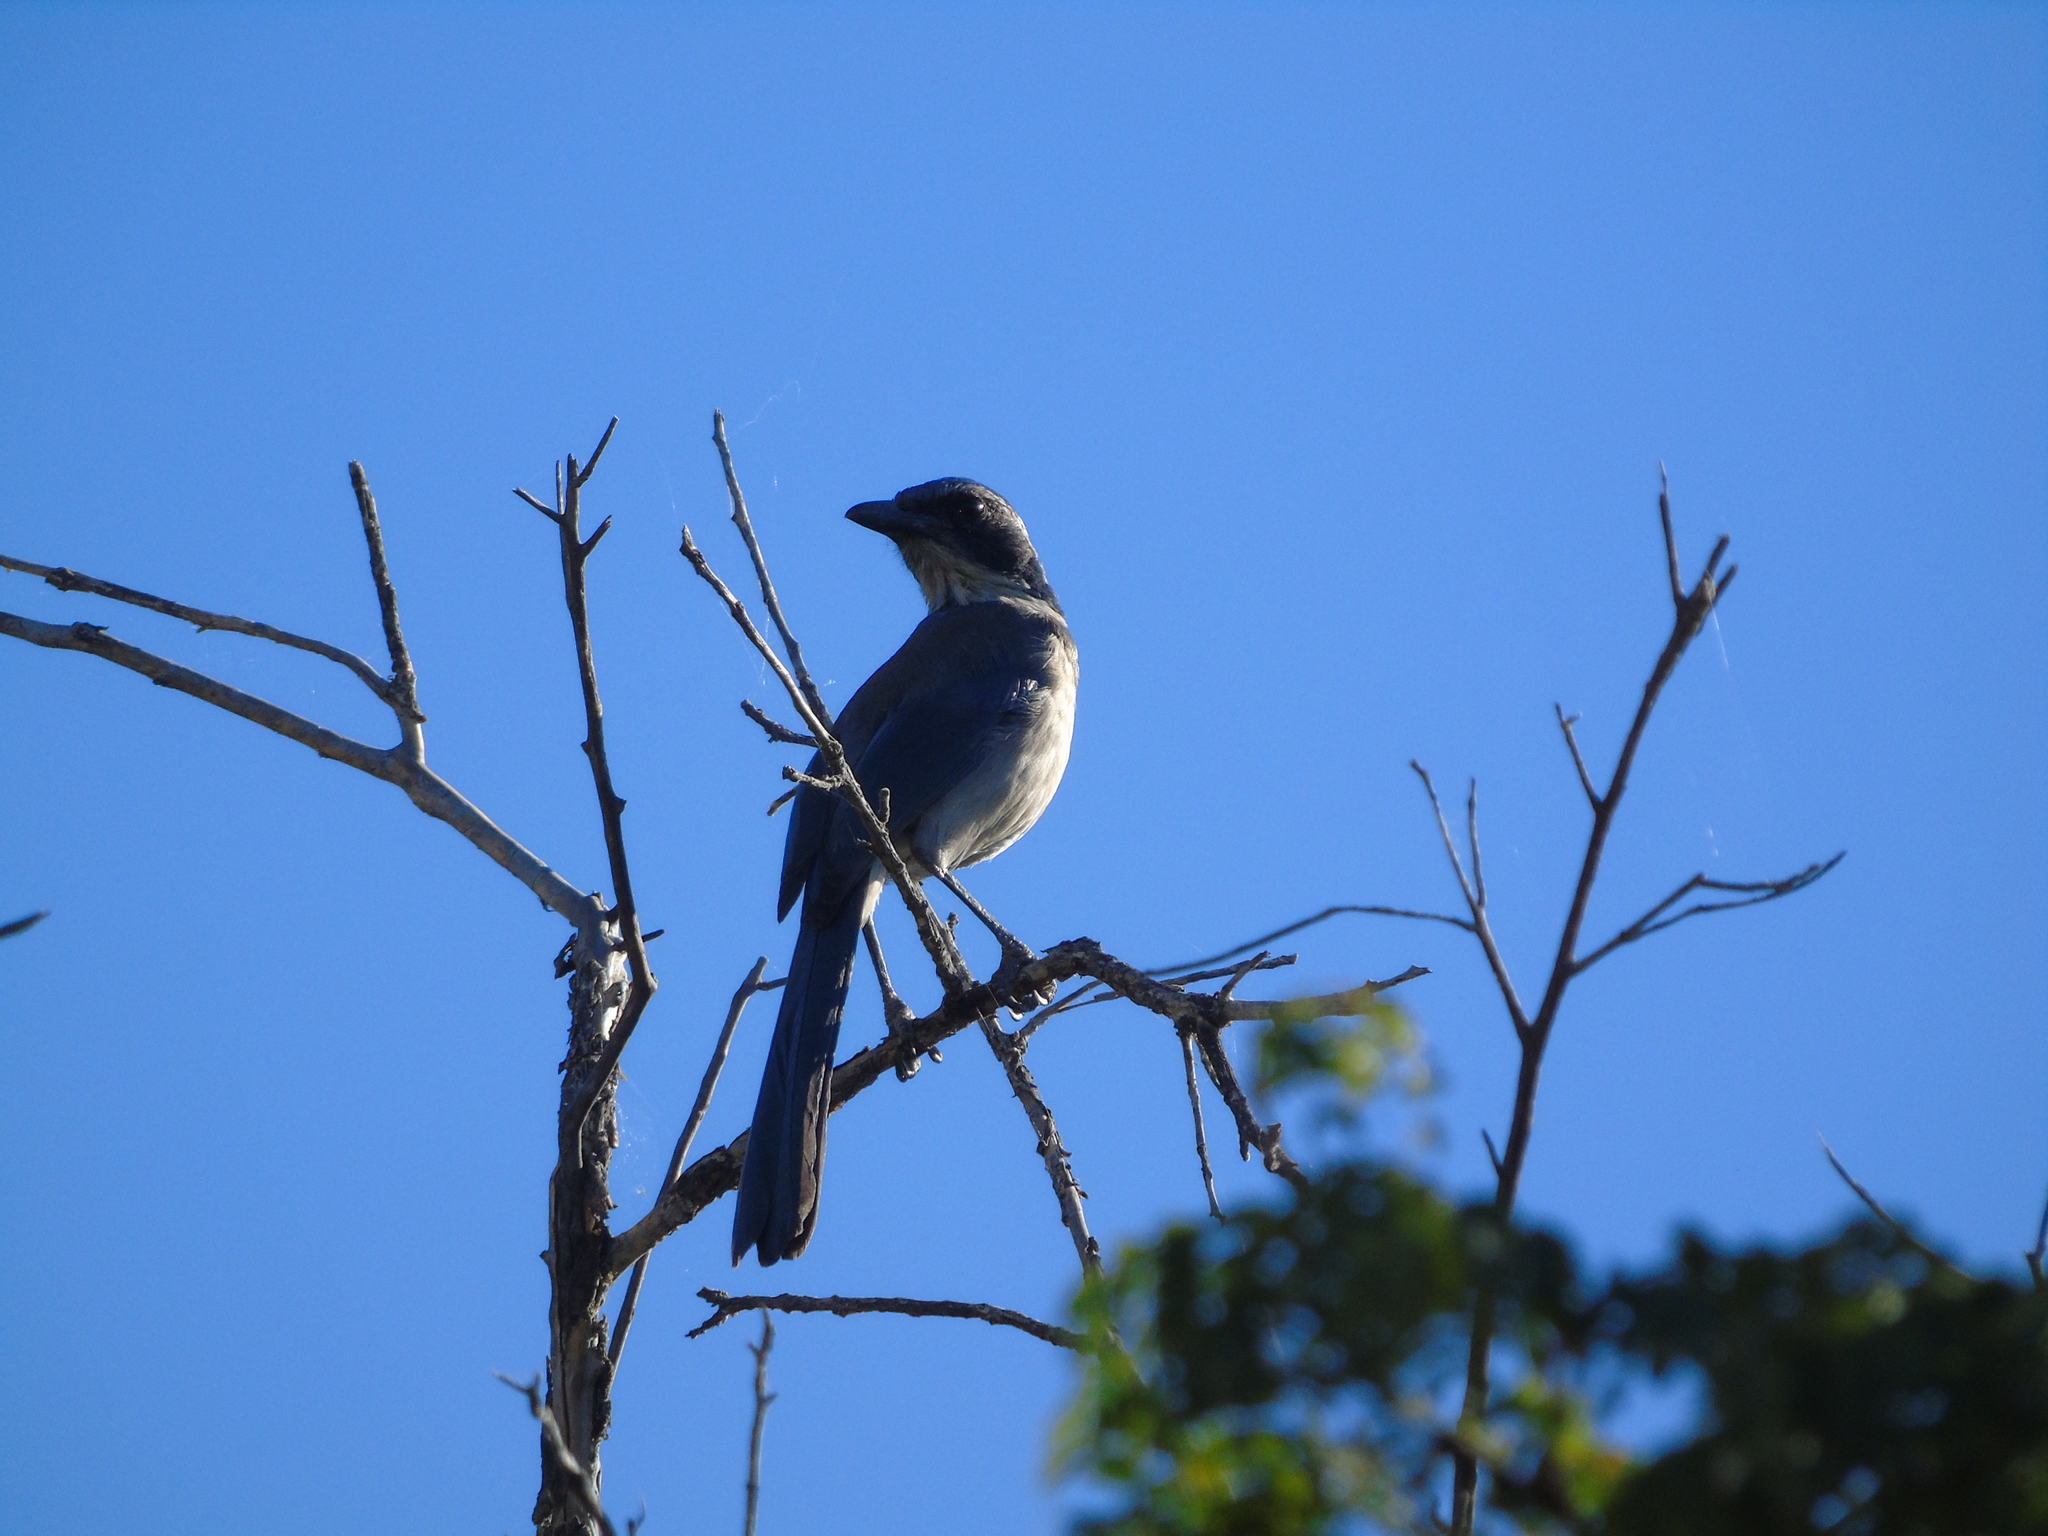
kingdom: Animalia
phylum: Chordata
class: Aves
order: Passeriformes
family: Corvidae
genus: Aphelocoma
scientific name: Aphelocoma californica
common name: California scrub-jay
